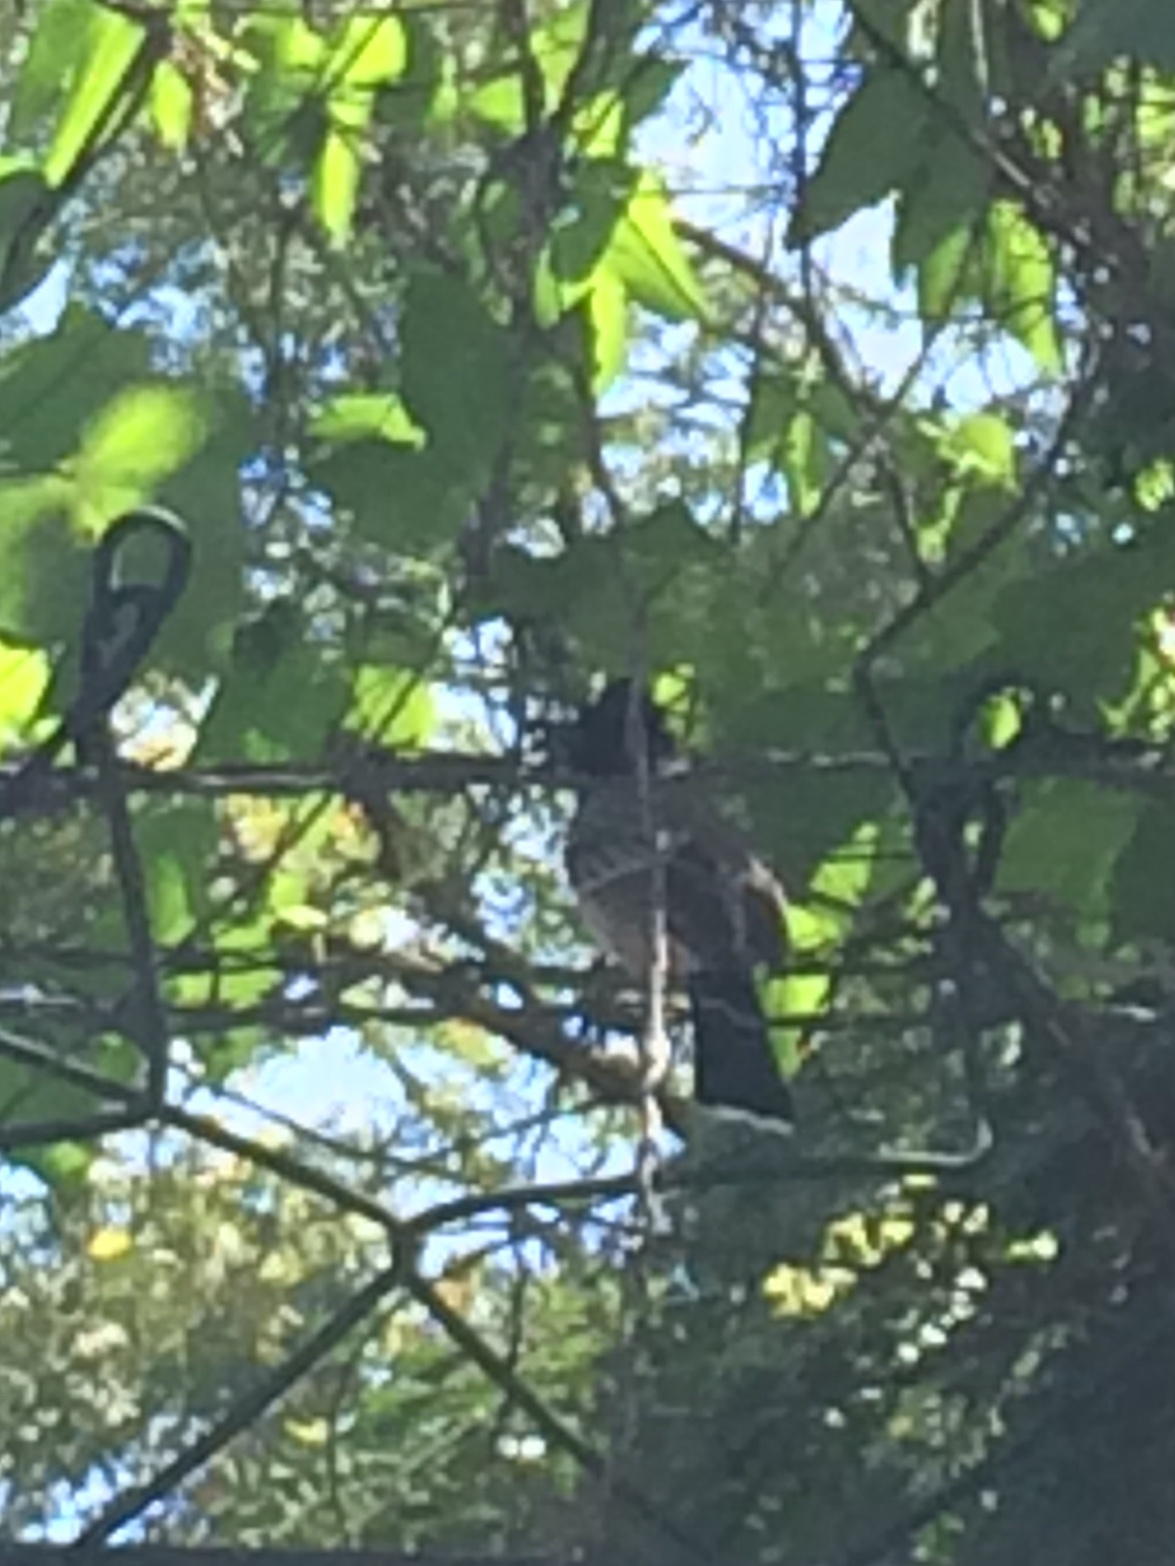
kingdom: Animalia
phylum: Chordata
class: Aves
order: Passeriformes
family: Pycnonotidae
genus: Pycnonotus
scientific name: Pycnonotus cafer
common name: Red-vented bulbul
